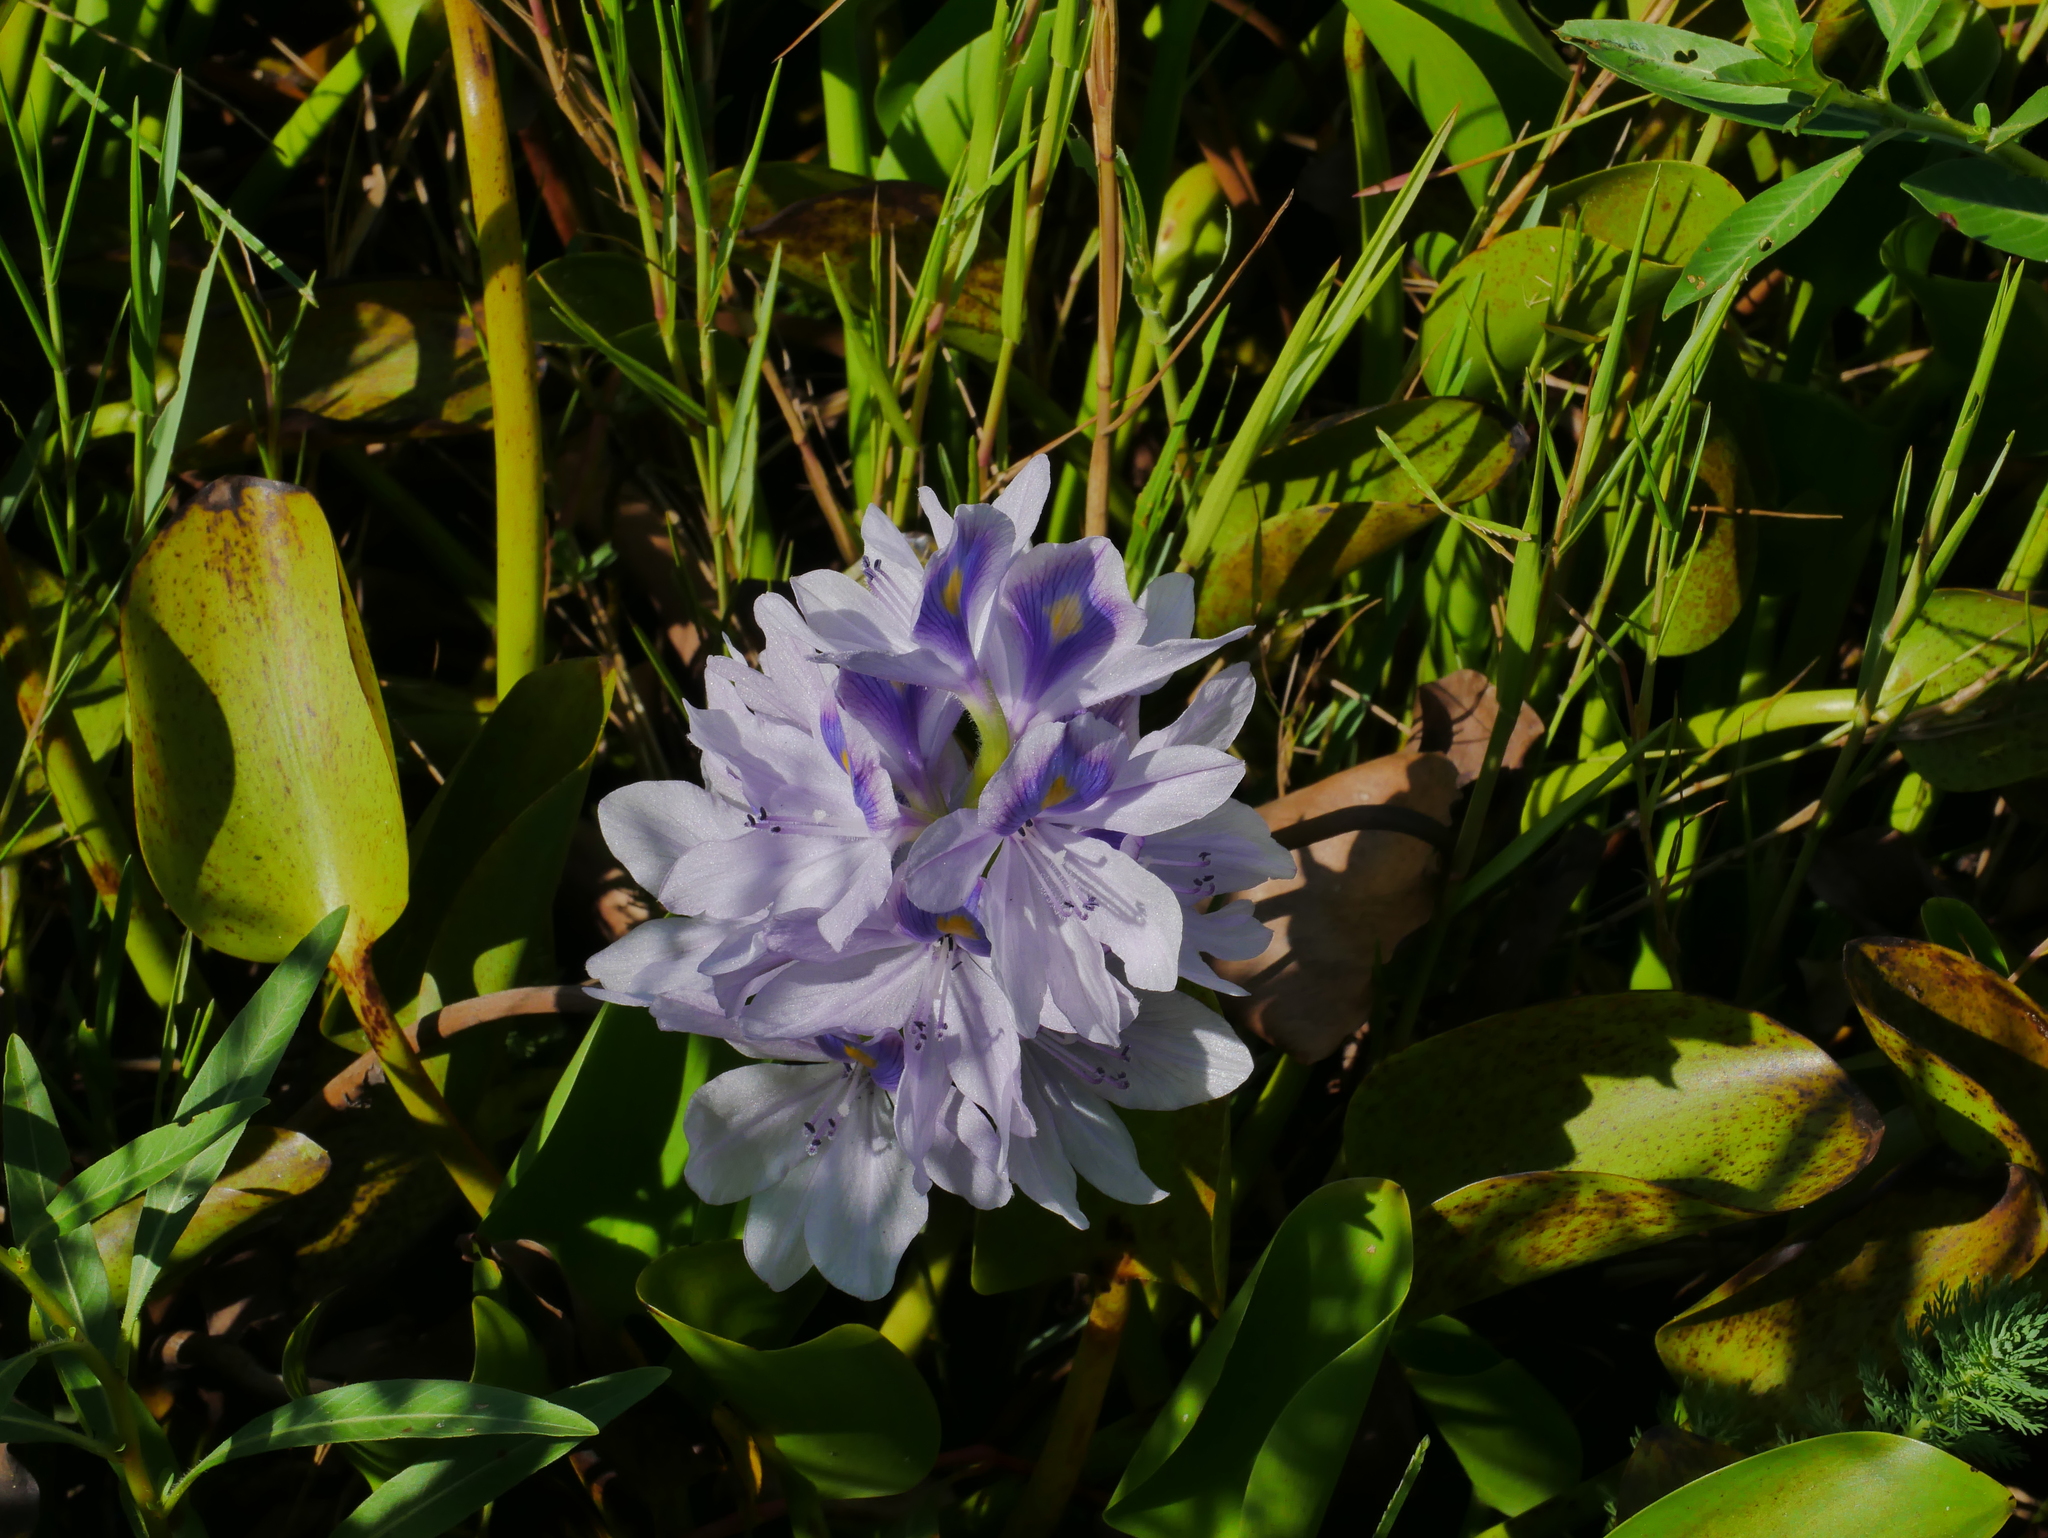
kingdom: Plantae
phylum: Tracheophyta
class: Liliopsida
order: Commelinales
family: Pontederiaceae
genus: Pontederia
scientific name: Pontederia crassipes
